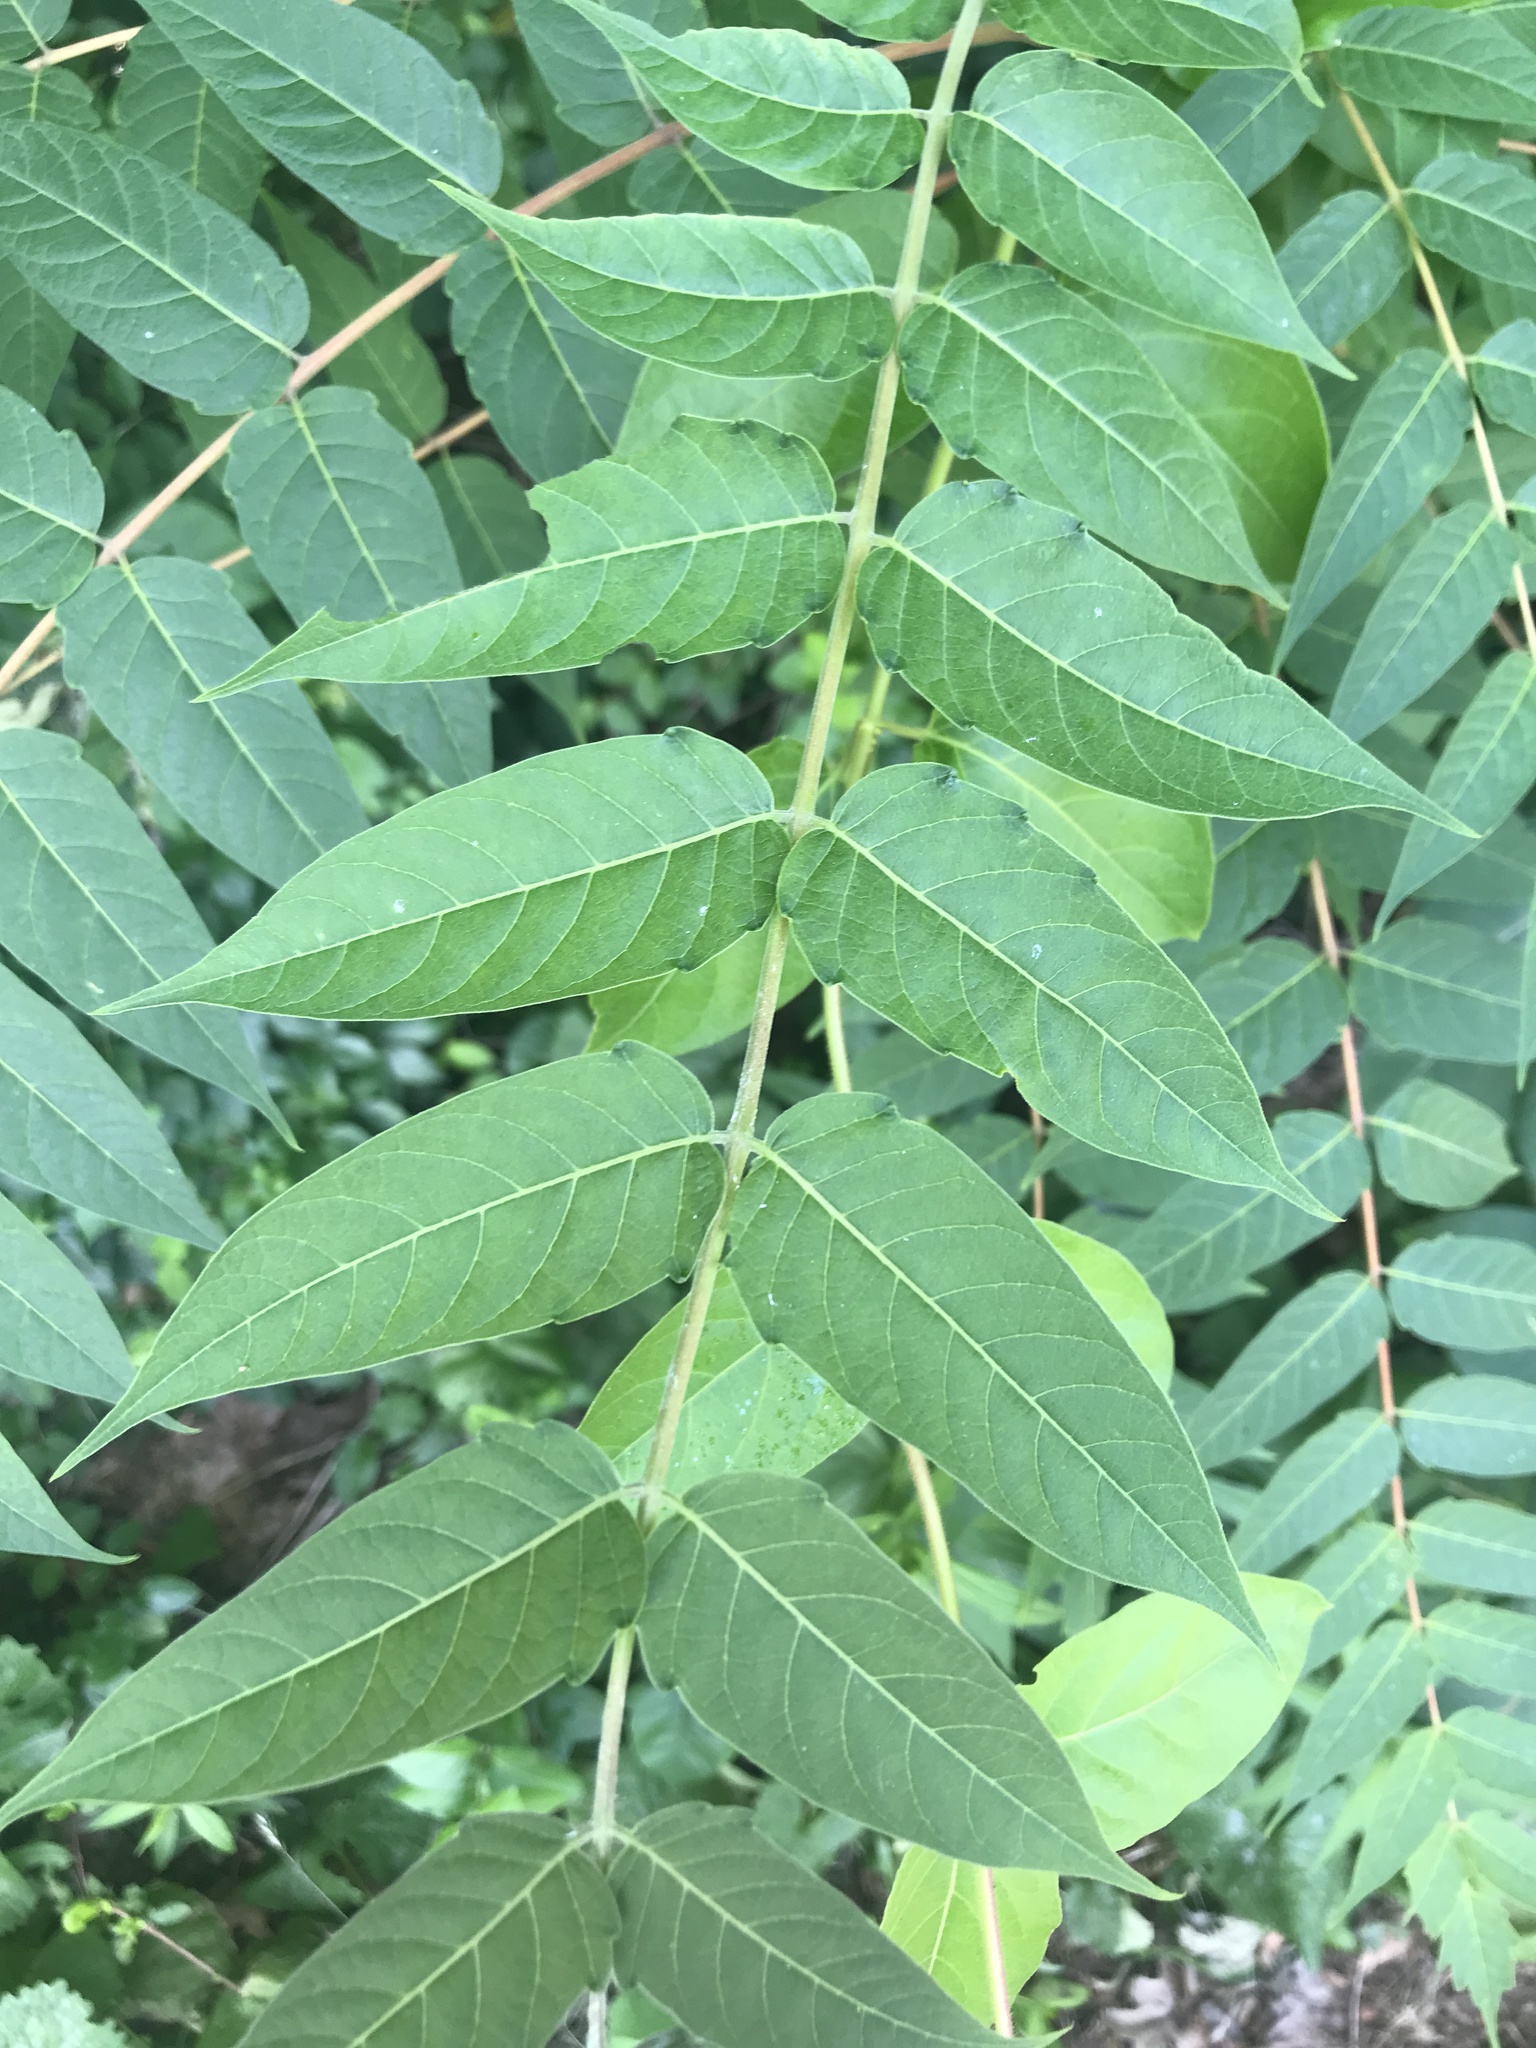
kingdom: Plantae
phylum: Tracheophyta
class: Magnoliopsida
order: Sapindales
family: Simaroubaceae
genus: Ailanthus
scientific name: Ailanthus altissima
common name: Tree-of-heaven
